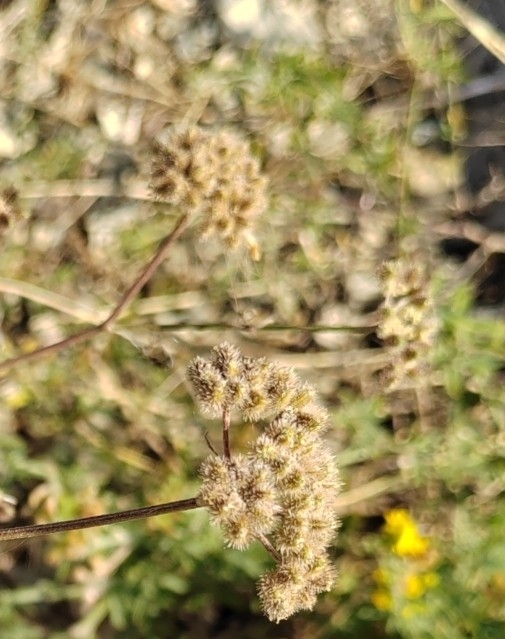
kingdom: Plantae
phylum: Tracheophyta
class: Magnoliopsida
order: Apiales
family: Apiaceae
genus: Torilis
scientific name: Torilis arvensis
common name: Spreading hedge-parsley
